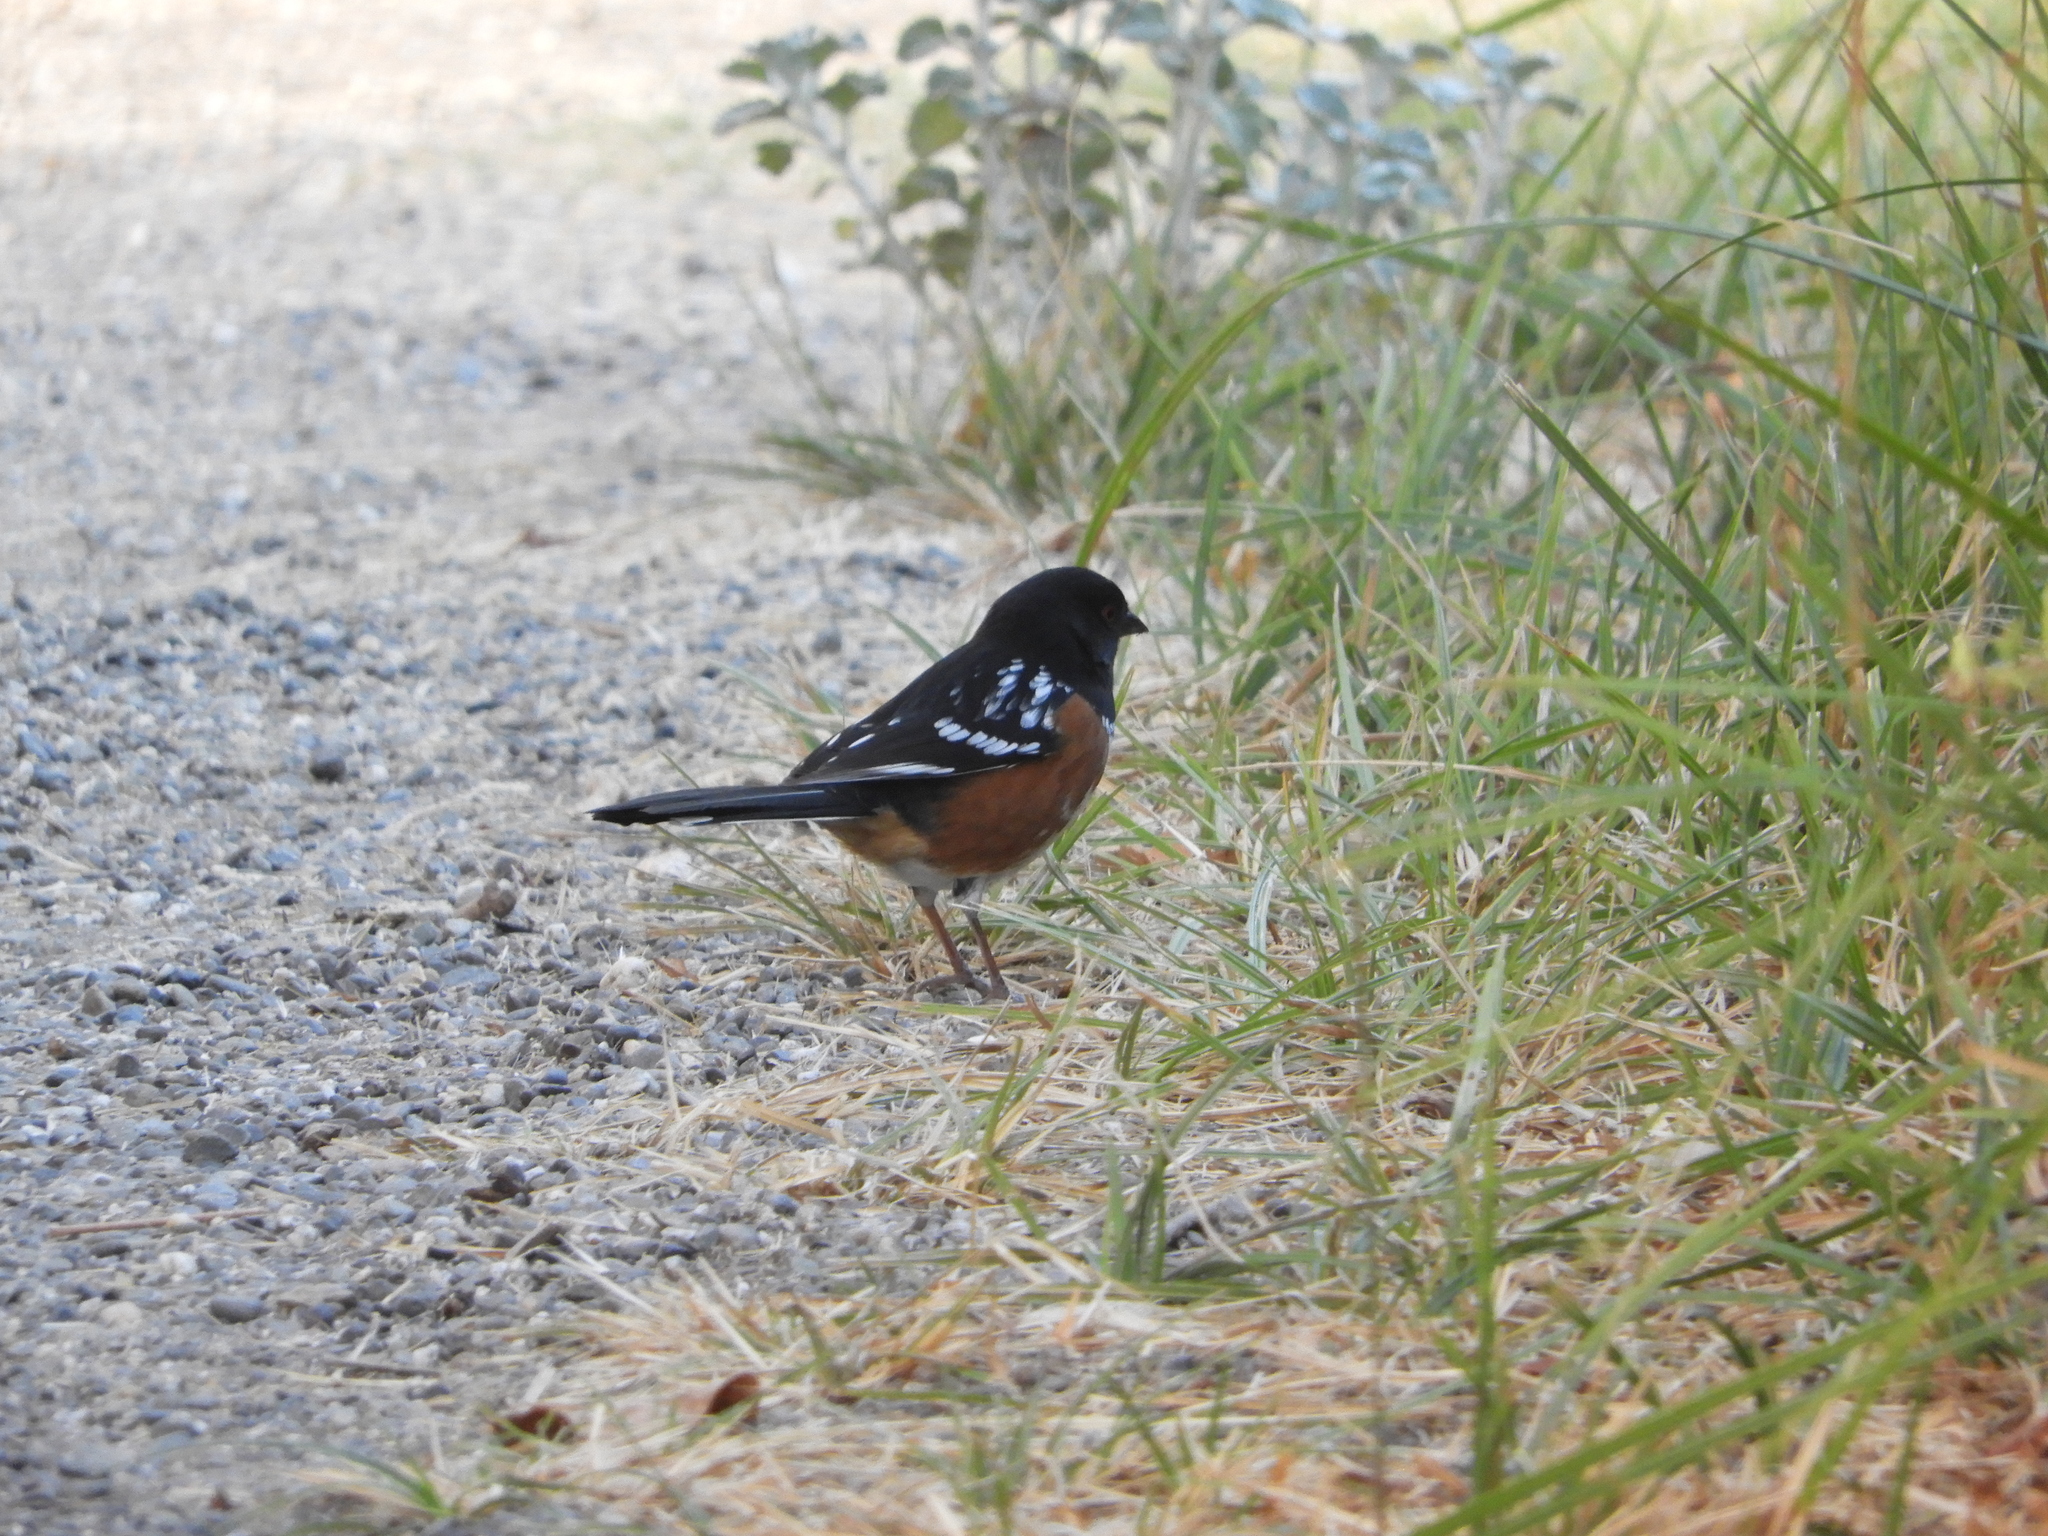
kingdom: Animalia
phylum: Chordata
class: Aves
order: Passeriformes
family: Passerellidae
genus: Pipilo
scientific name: Pipilo maculatus
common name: Spotted towhee
